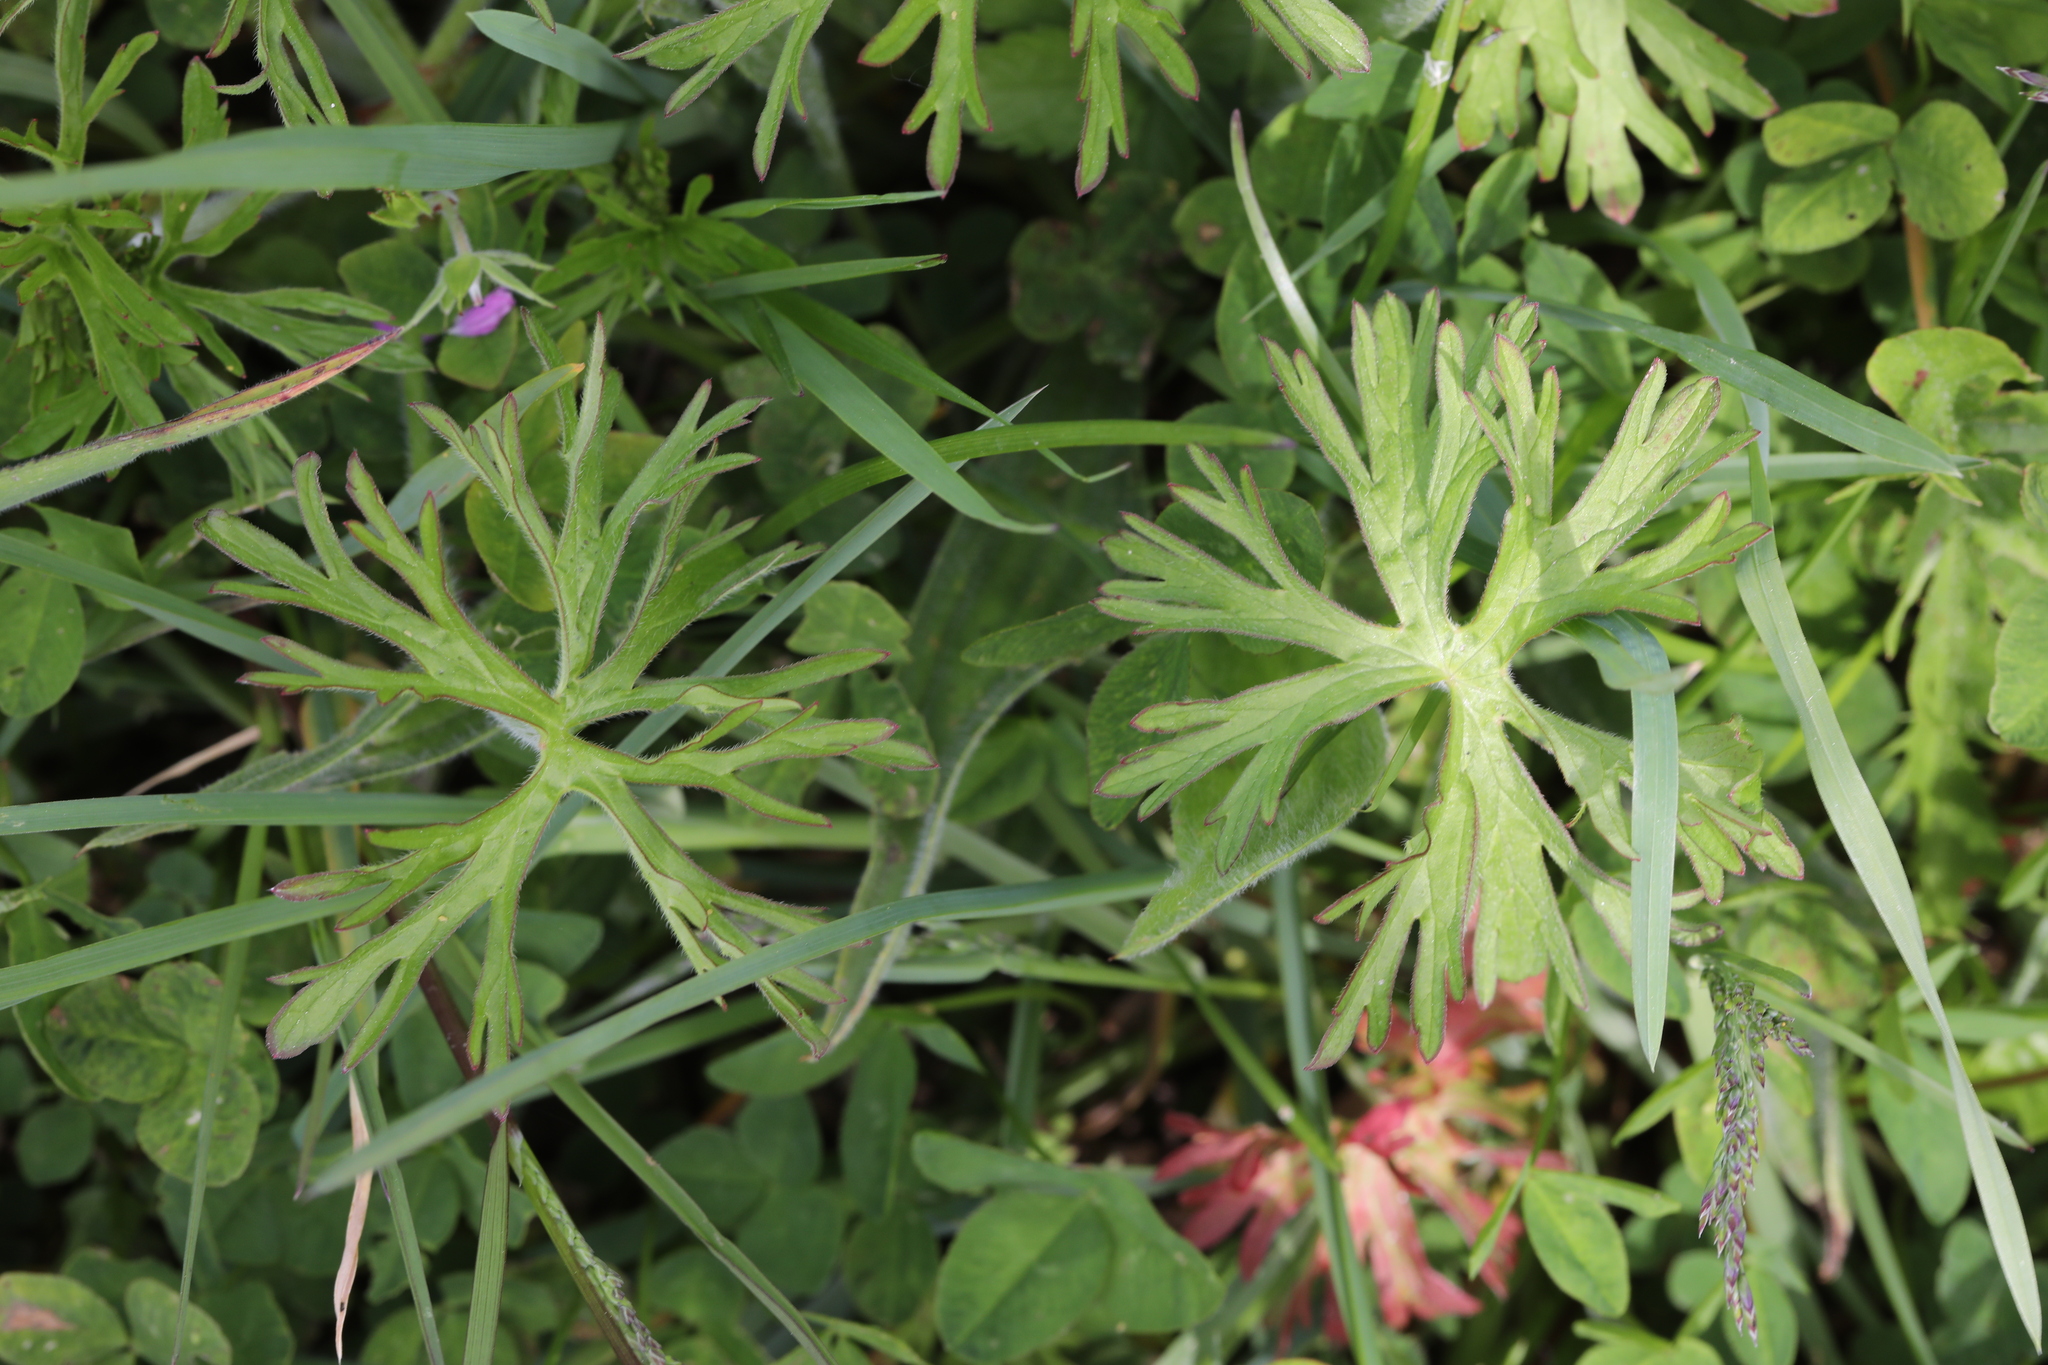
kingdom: Plantae
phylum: Tracheophyta
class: Magnoliopsida
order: Geraniales
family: Geraniaceae
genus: Geranium
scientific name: Geranium dissectum
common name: Cut-leaved crane's-bill
